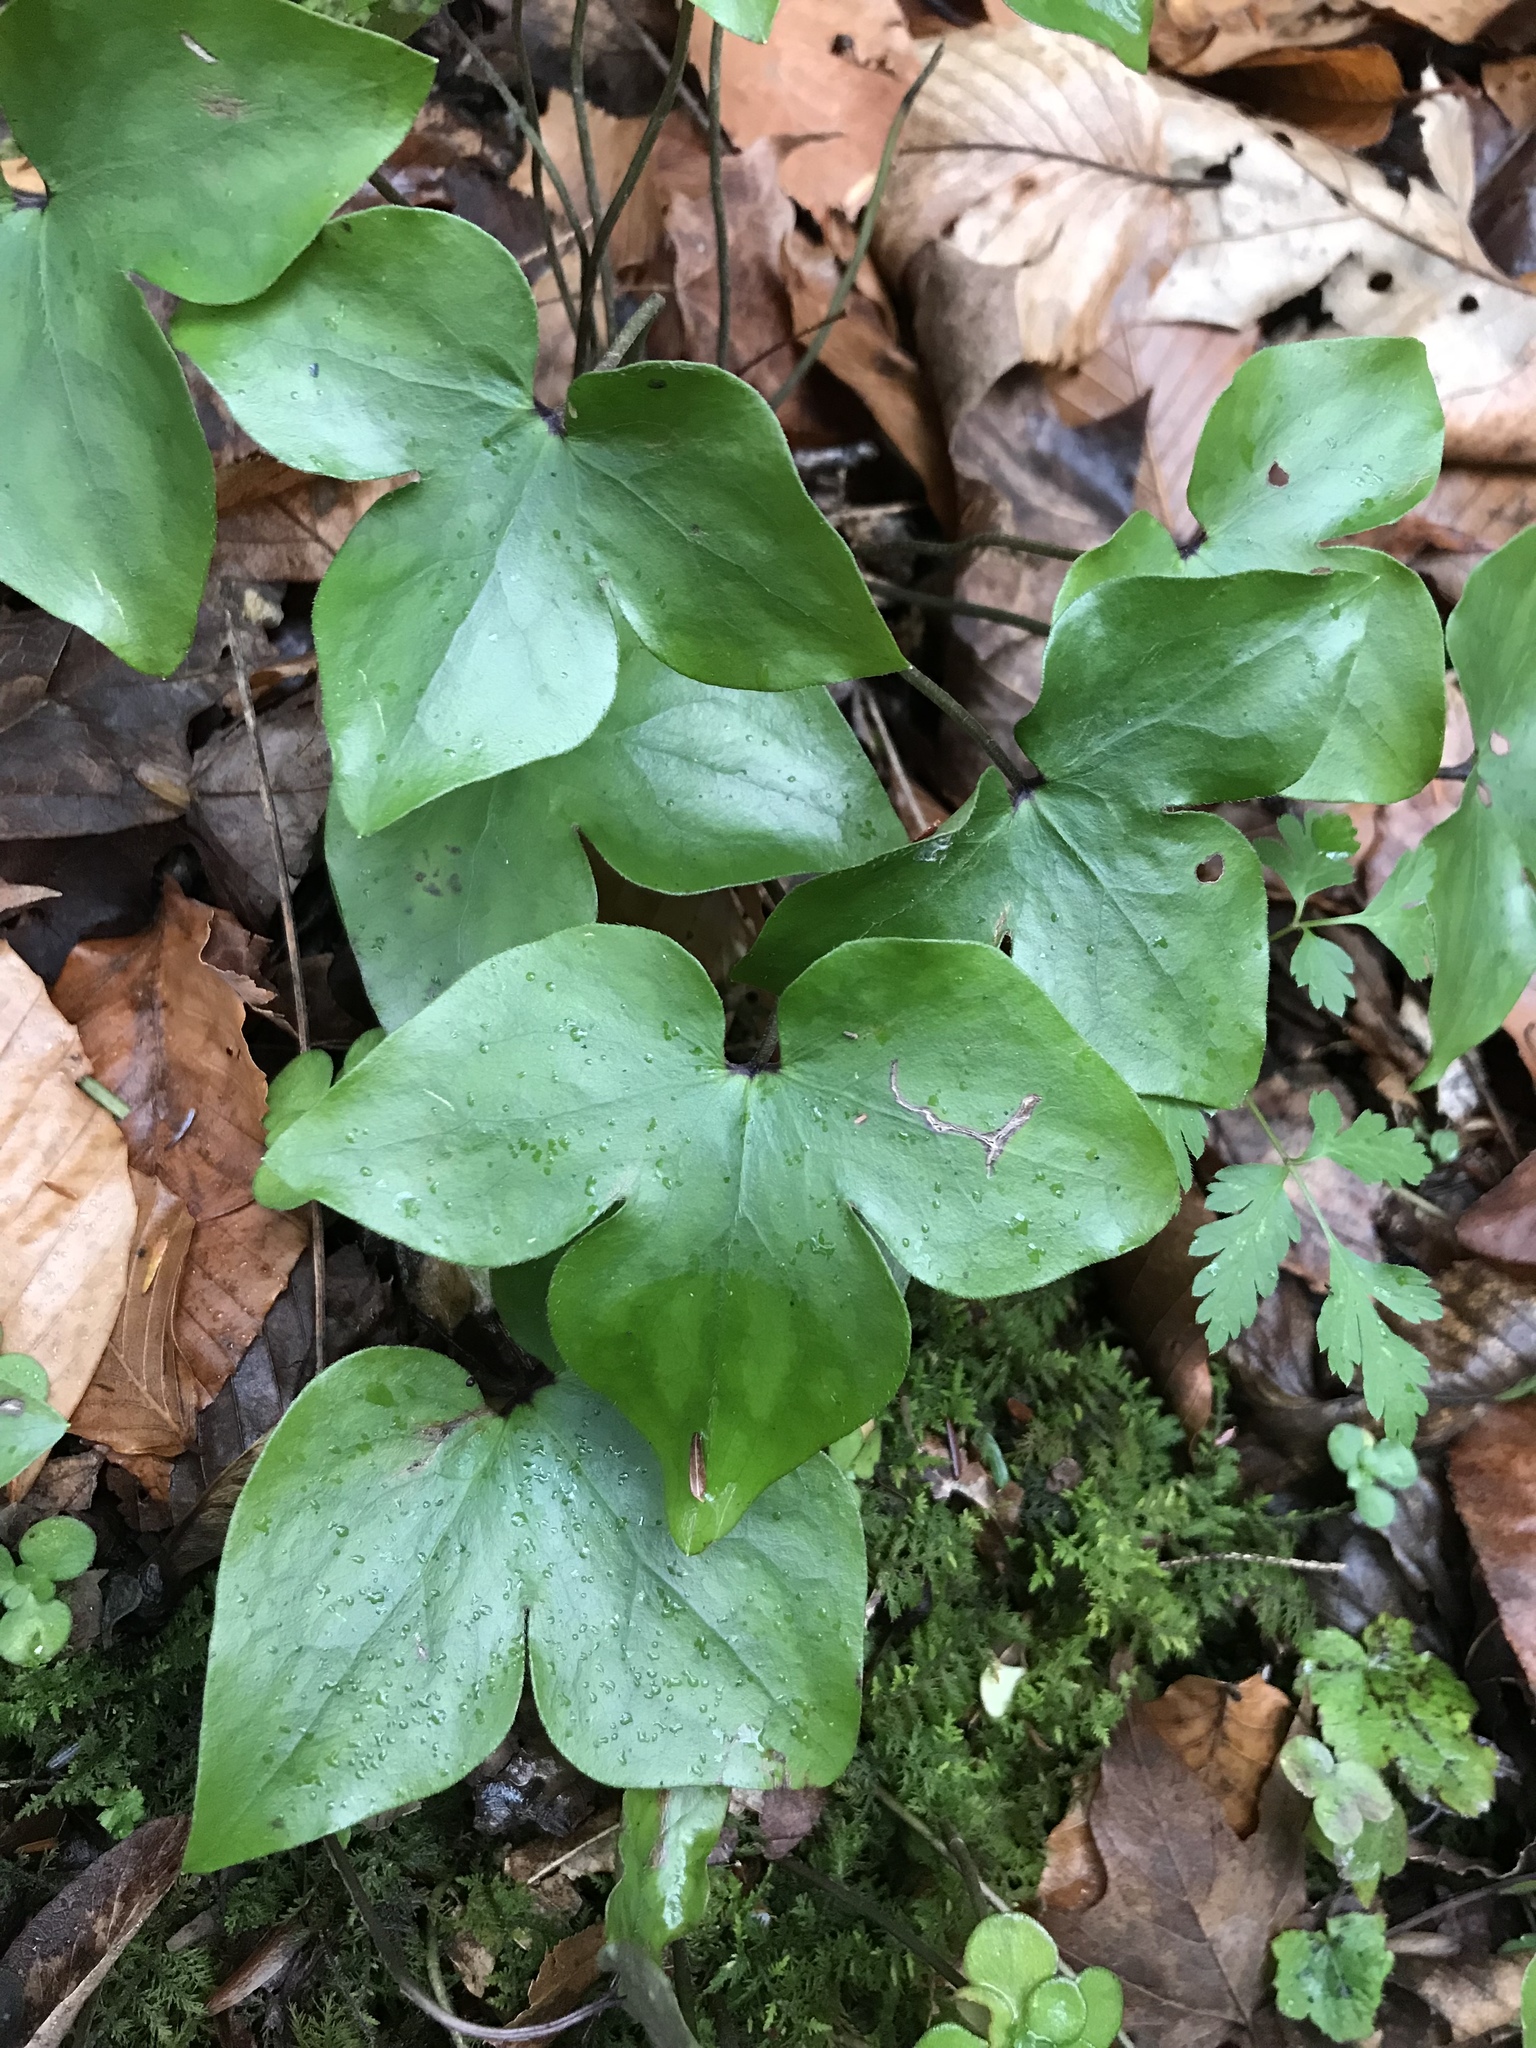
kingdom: Plantae
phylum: Tracheophyta
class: Magnoliopsida
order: Ranunculales
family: Ranunculaceae
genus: Hepatica
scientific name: Hepatica acutiloba
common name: Sharp-lobed hepatica
